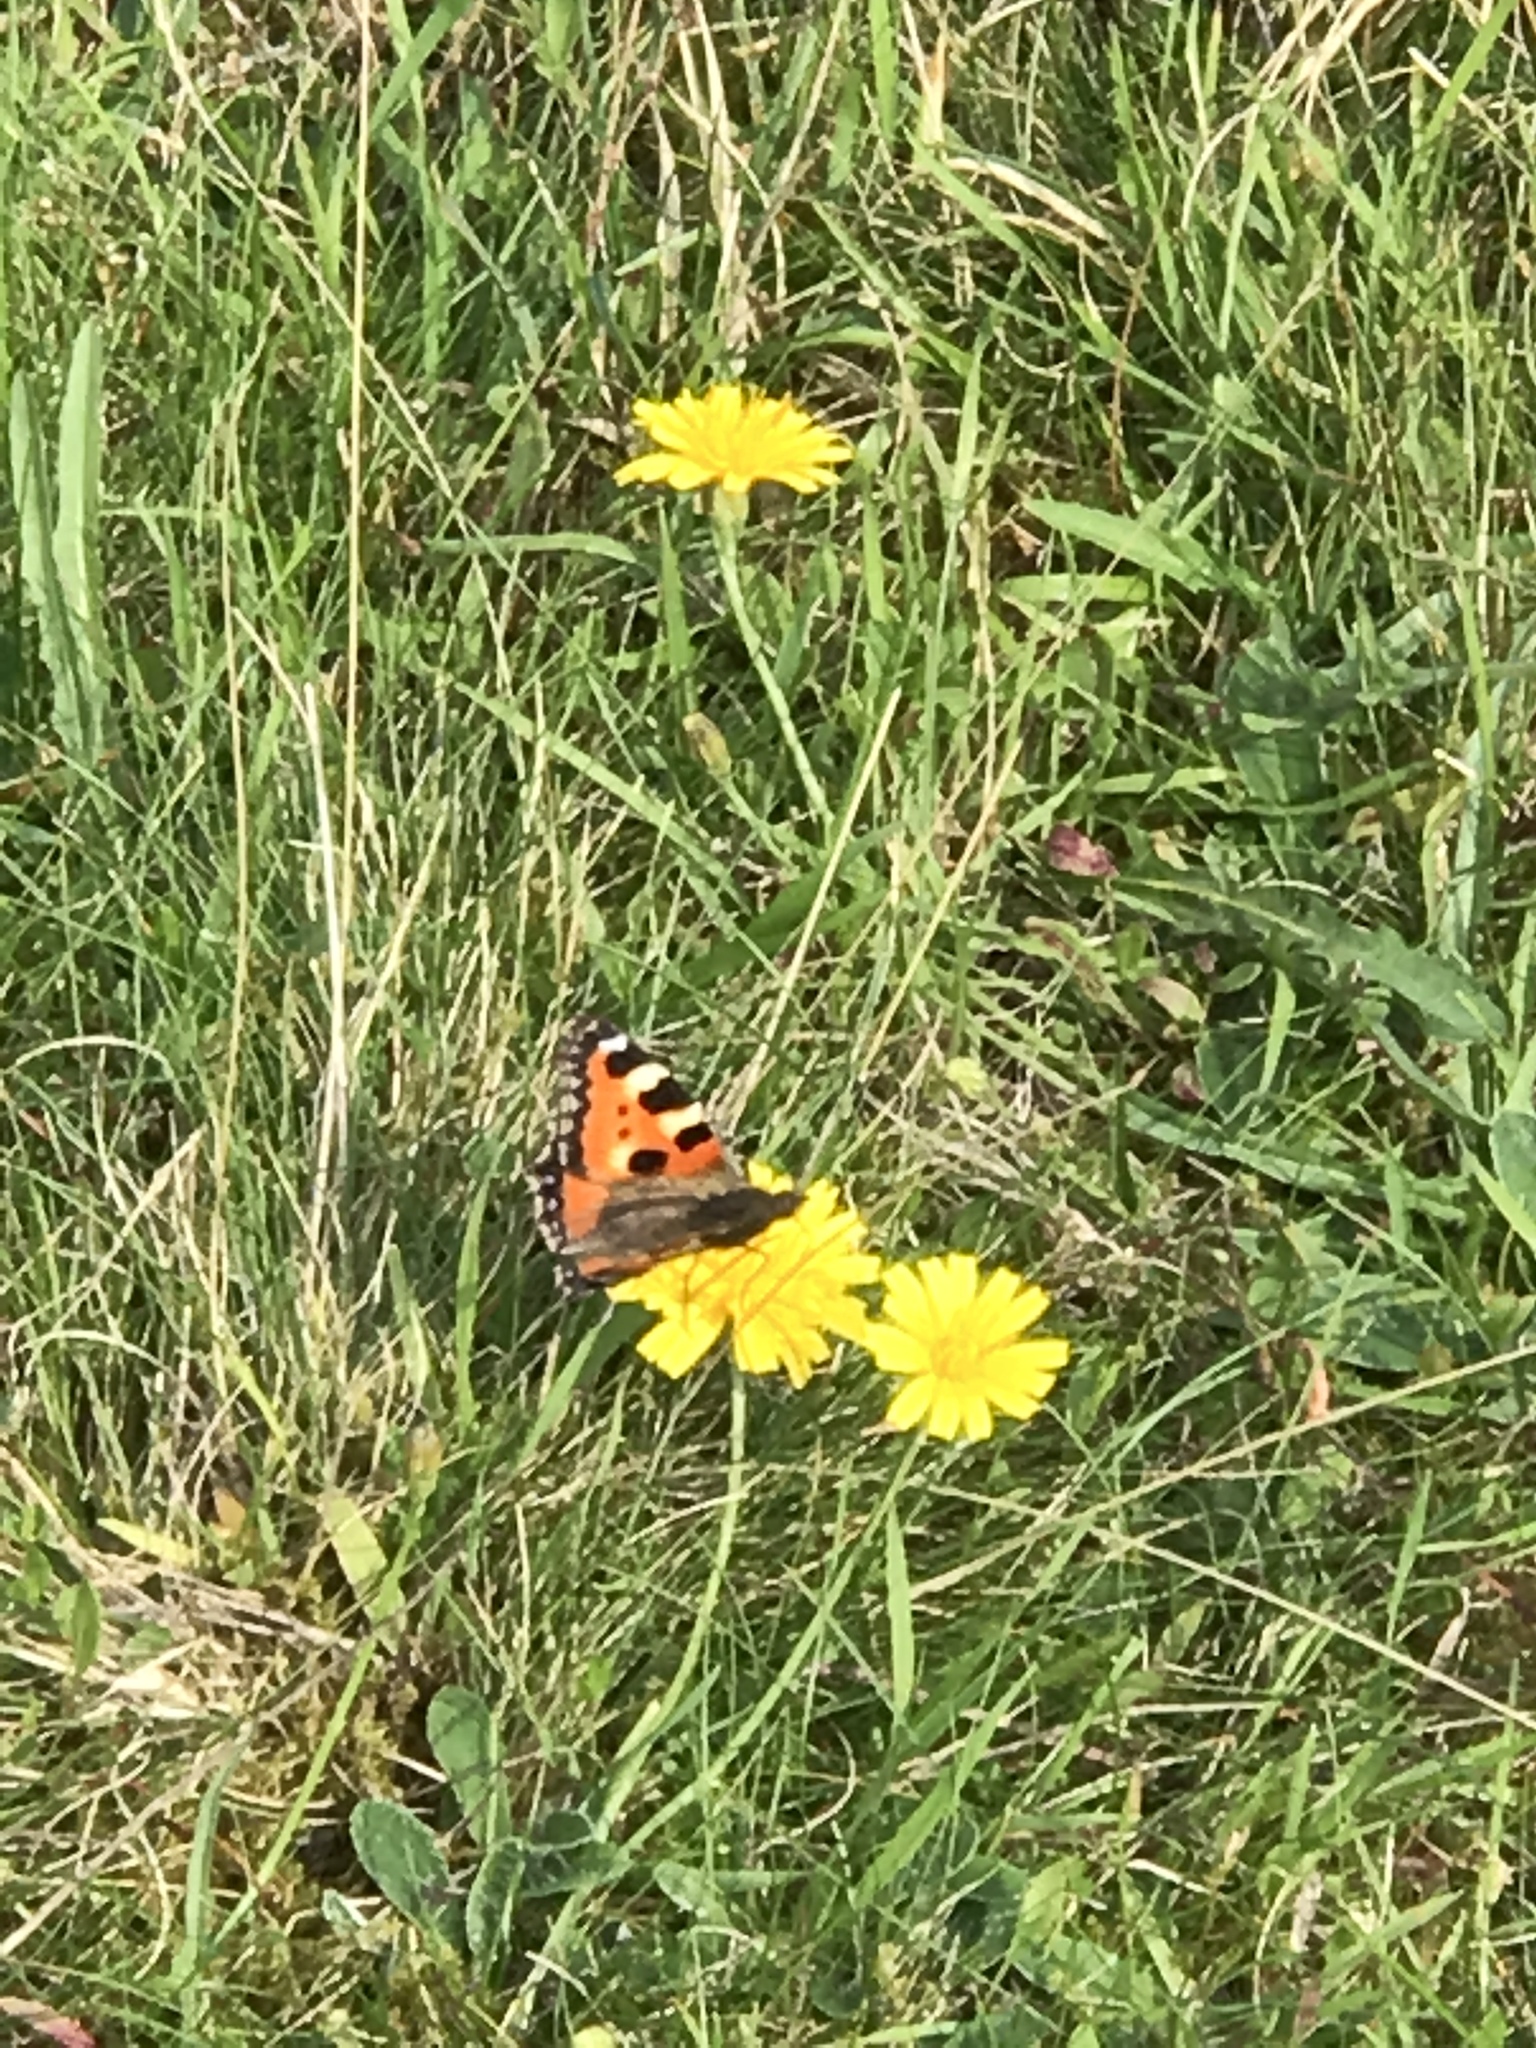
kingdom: Animalia
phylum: Arthropoda
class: Insecta
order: Lepidoptera
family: Nymphalidae
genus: Aglais
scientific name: Aglais urticae
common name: Small tortoiseshell
